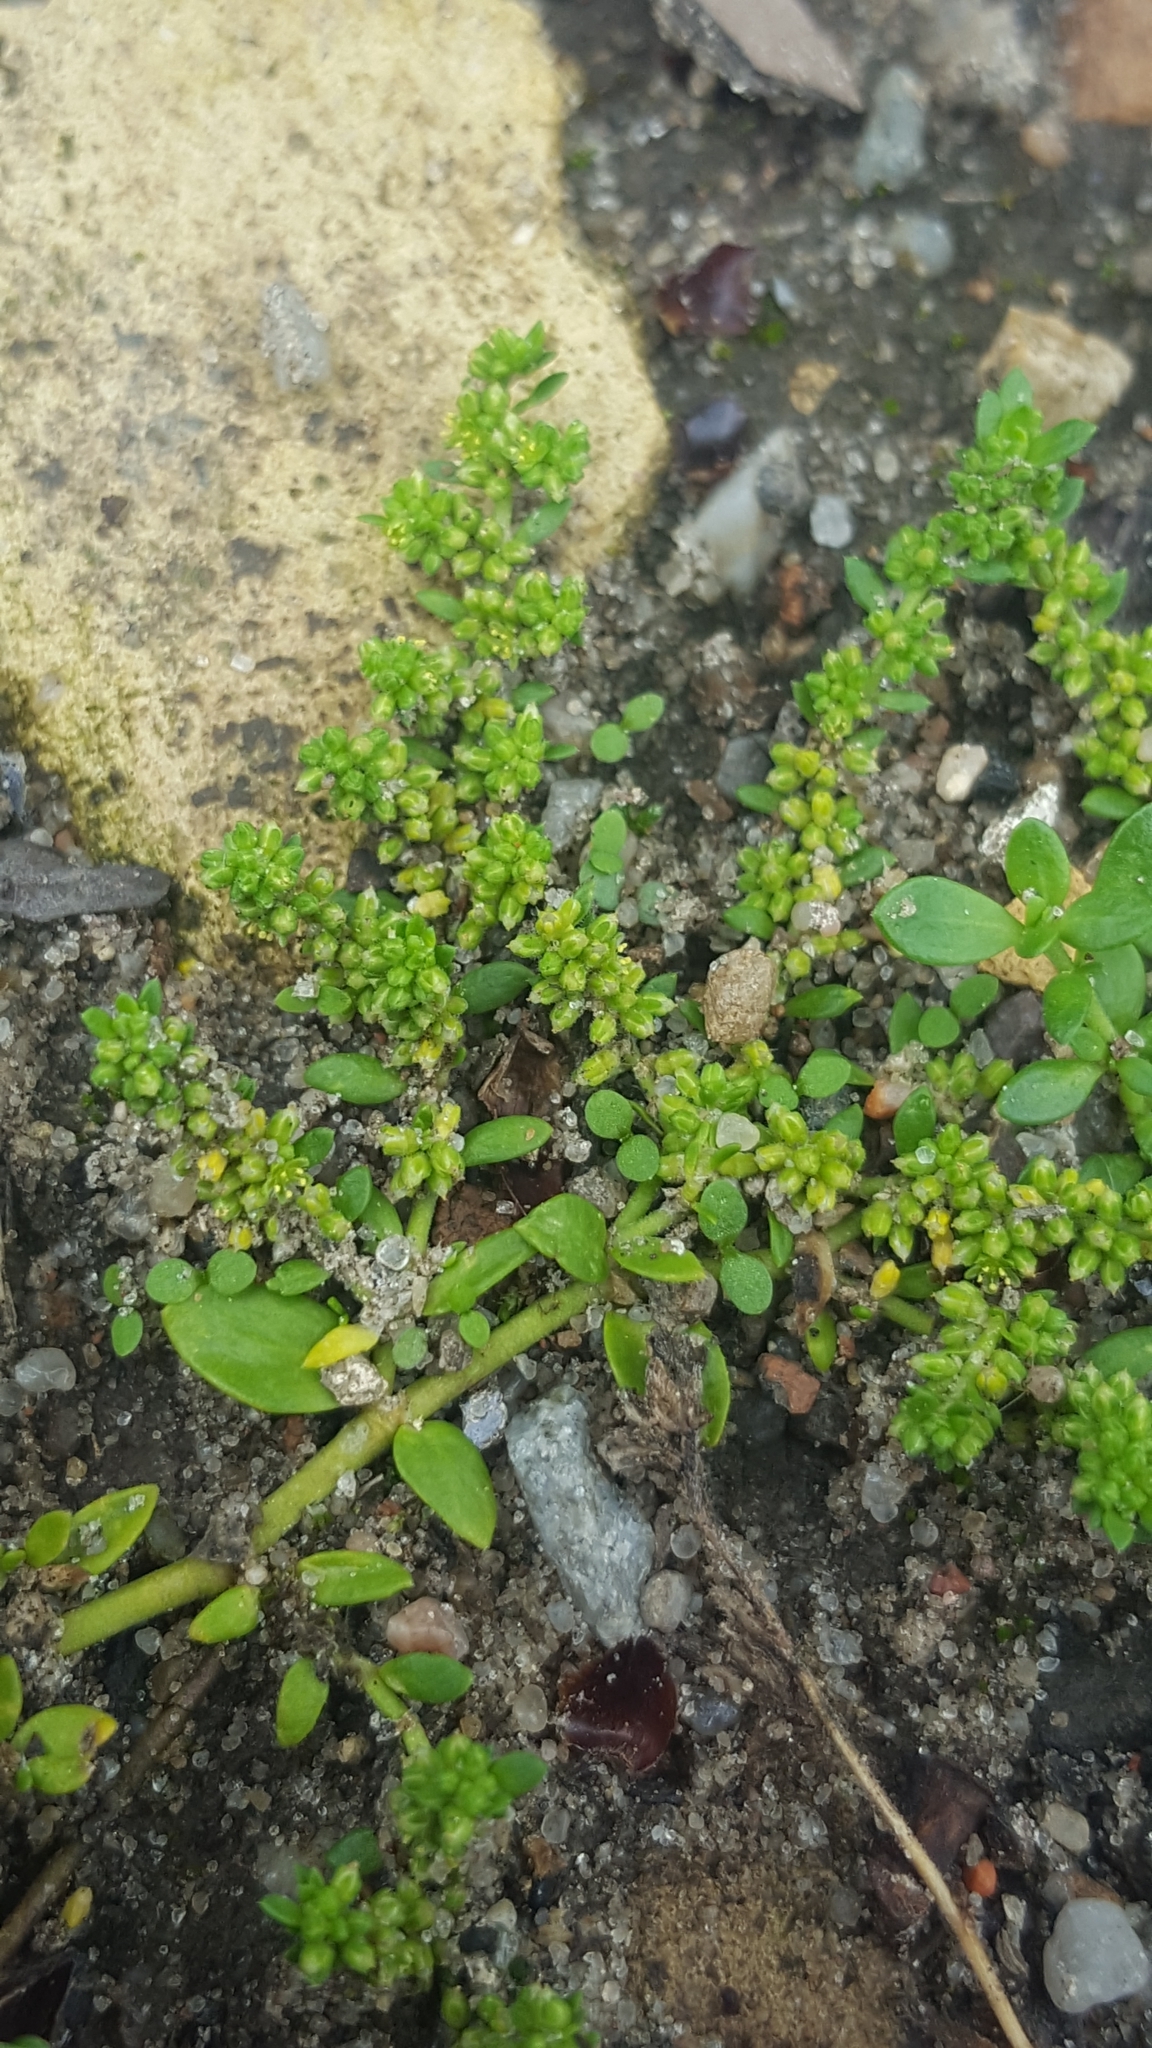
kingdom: Plantae
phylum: Tracheophyta
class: Magnoliopsida
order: Caryophyllales
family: Caryophyllaceae
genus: Herniaria
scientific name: Herniaria glabra
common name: Smooth rupturewort
